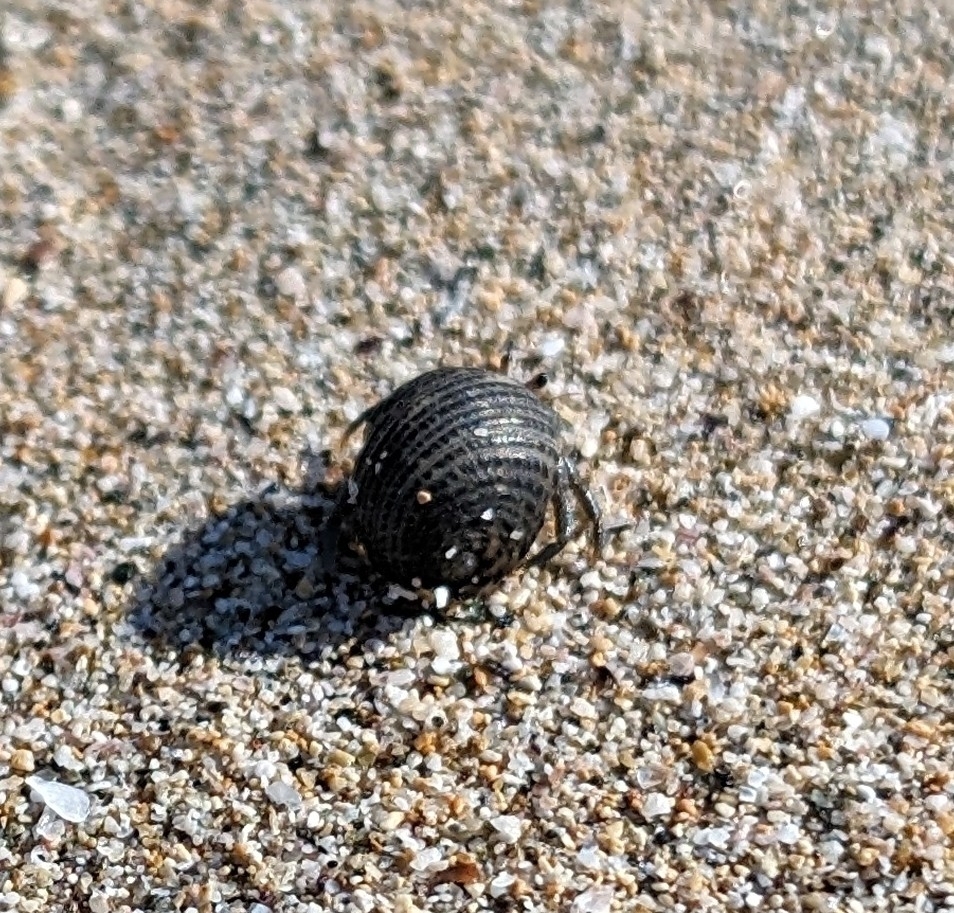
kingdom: Animalia
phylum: Arthropoda
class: Malacostraca
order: Decapoda
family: Coenobitidae
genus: Coenobita
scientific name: Coenobita compressus
